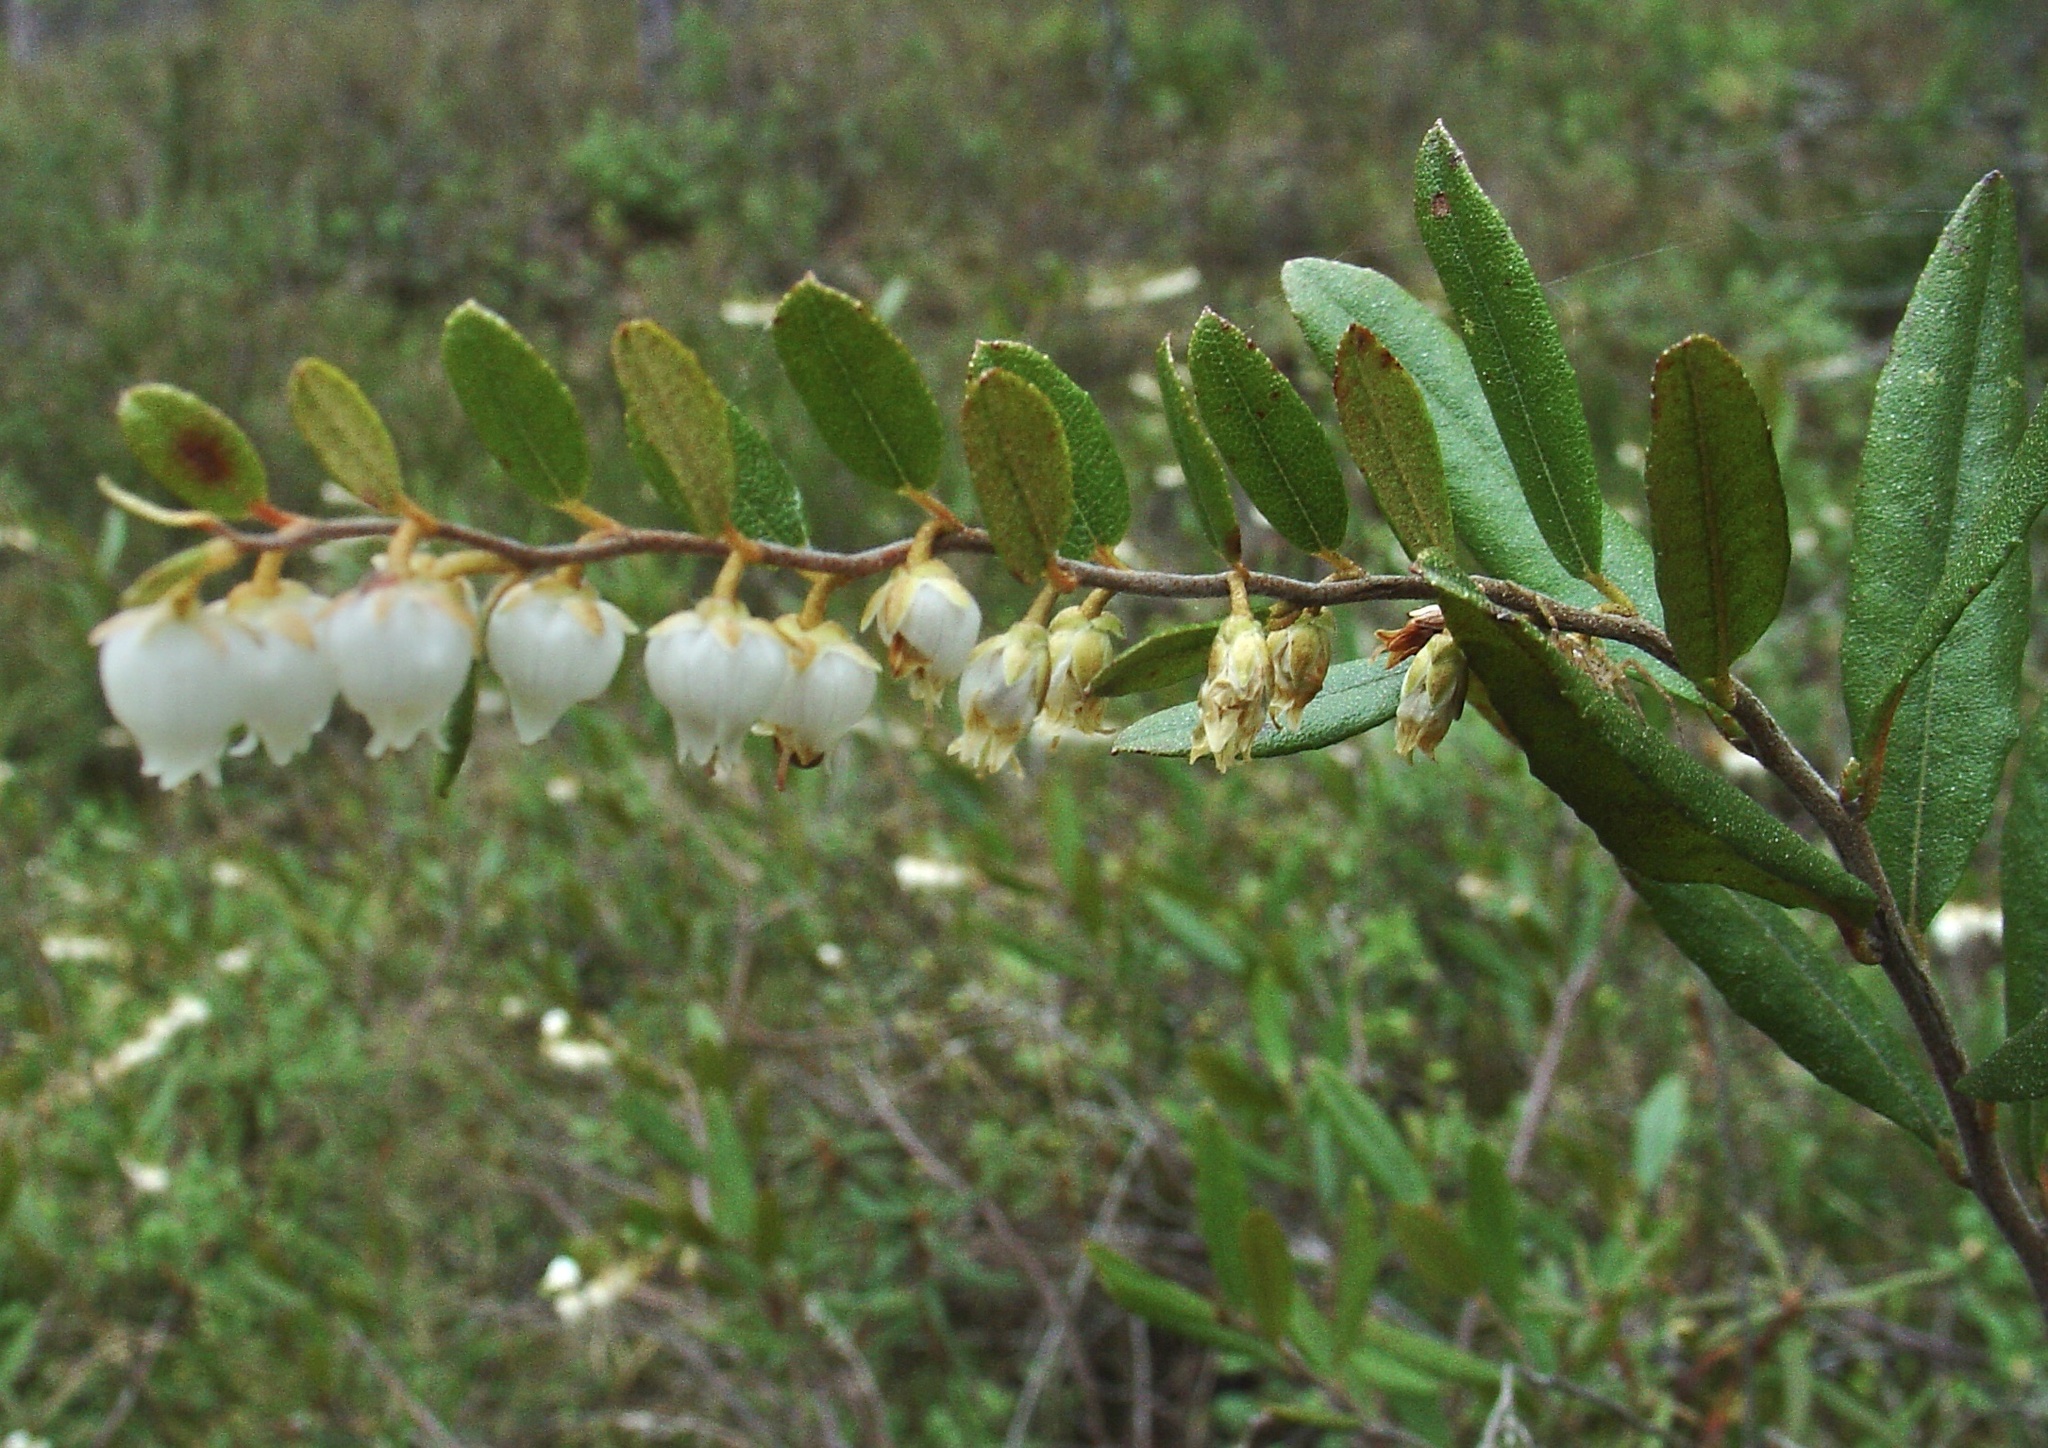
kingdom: Plantae
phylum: Tracheophyta
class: Magnoliopsida
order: Ericales
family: Ericaceae
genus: Chamaedaphne
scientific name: Chamaedaphne calyculata
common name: Leatherleaf
